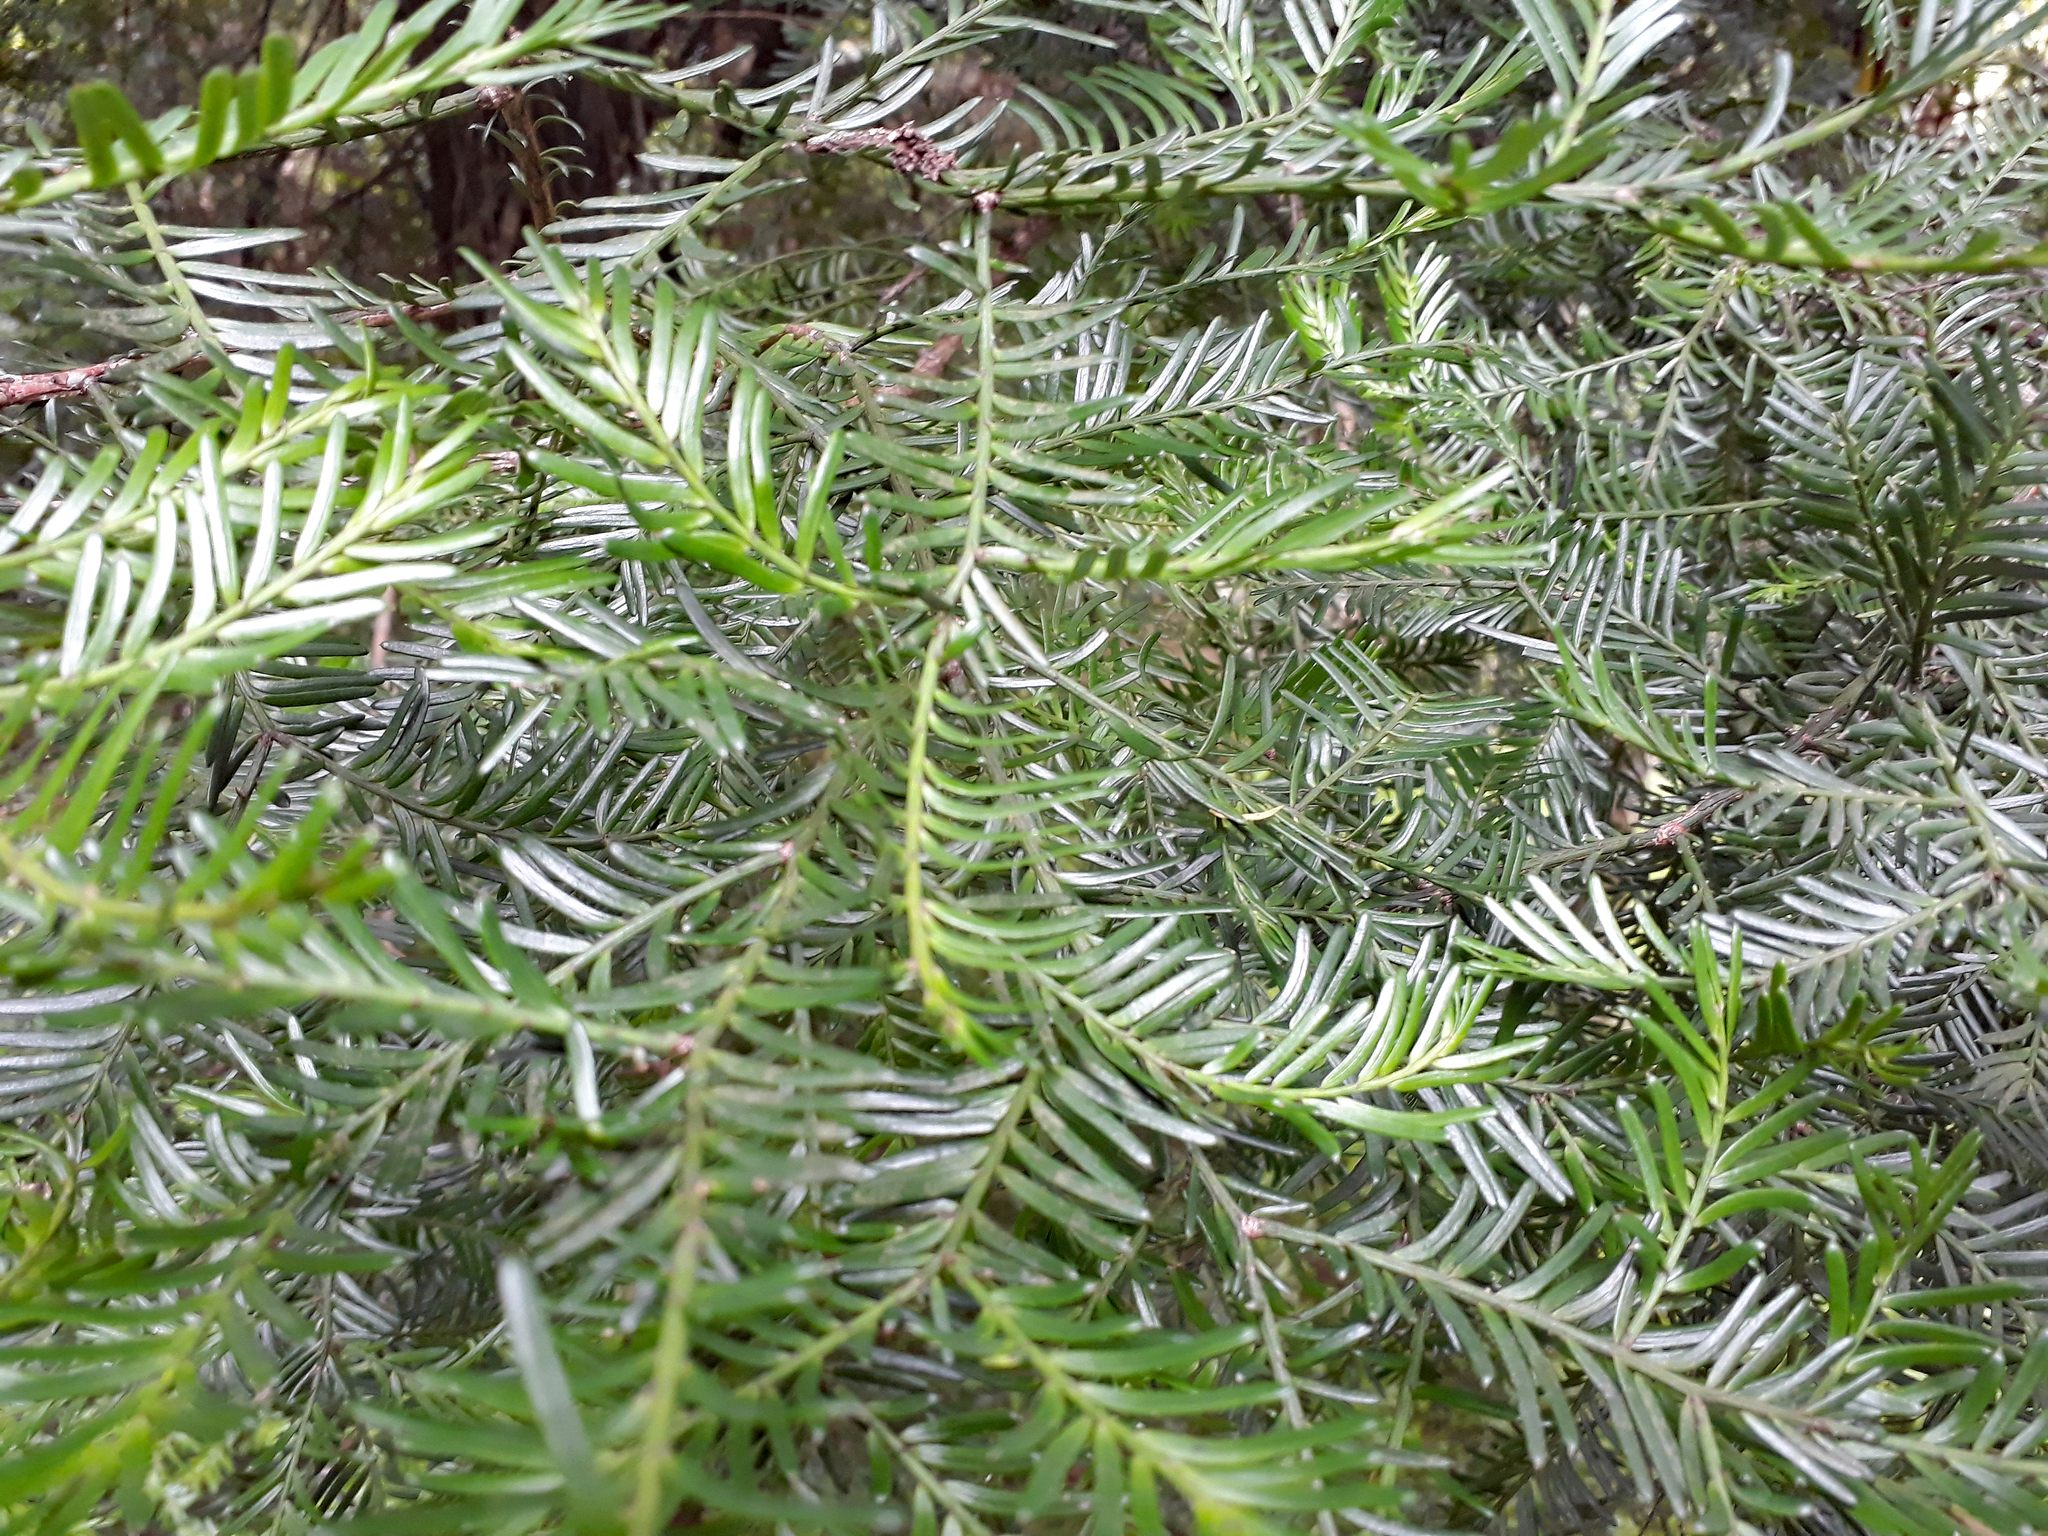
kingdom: Plantae
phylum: Tracheophyta
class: Pinopsida
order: Pinales
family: Podocarpaceae
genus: Prumnopitys
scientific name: Prumnopitys taxifolia
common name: Matai
